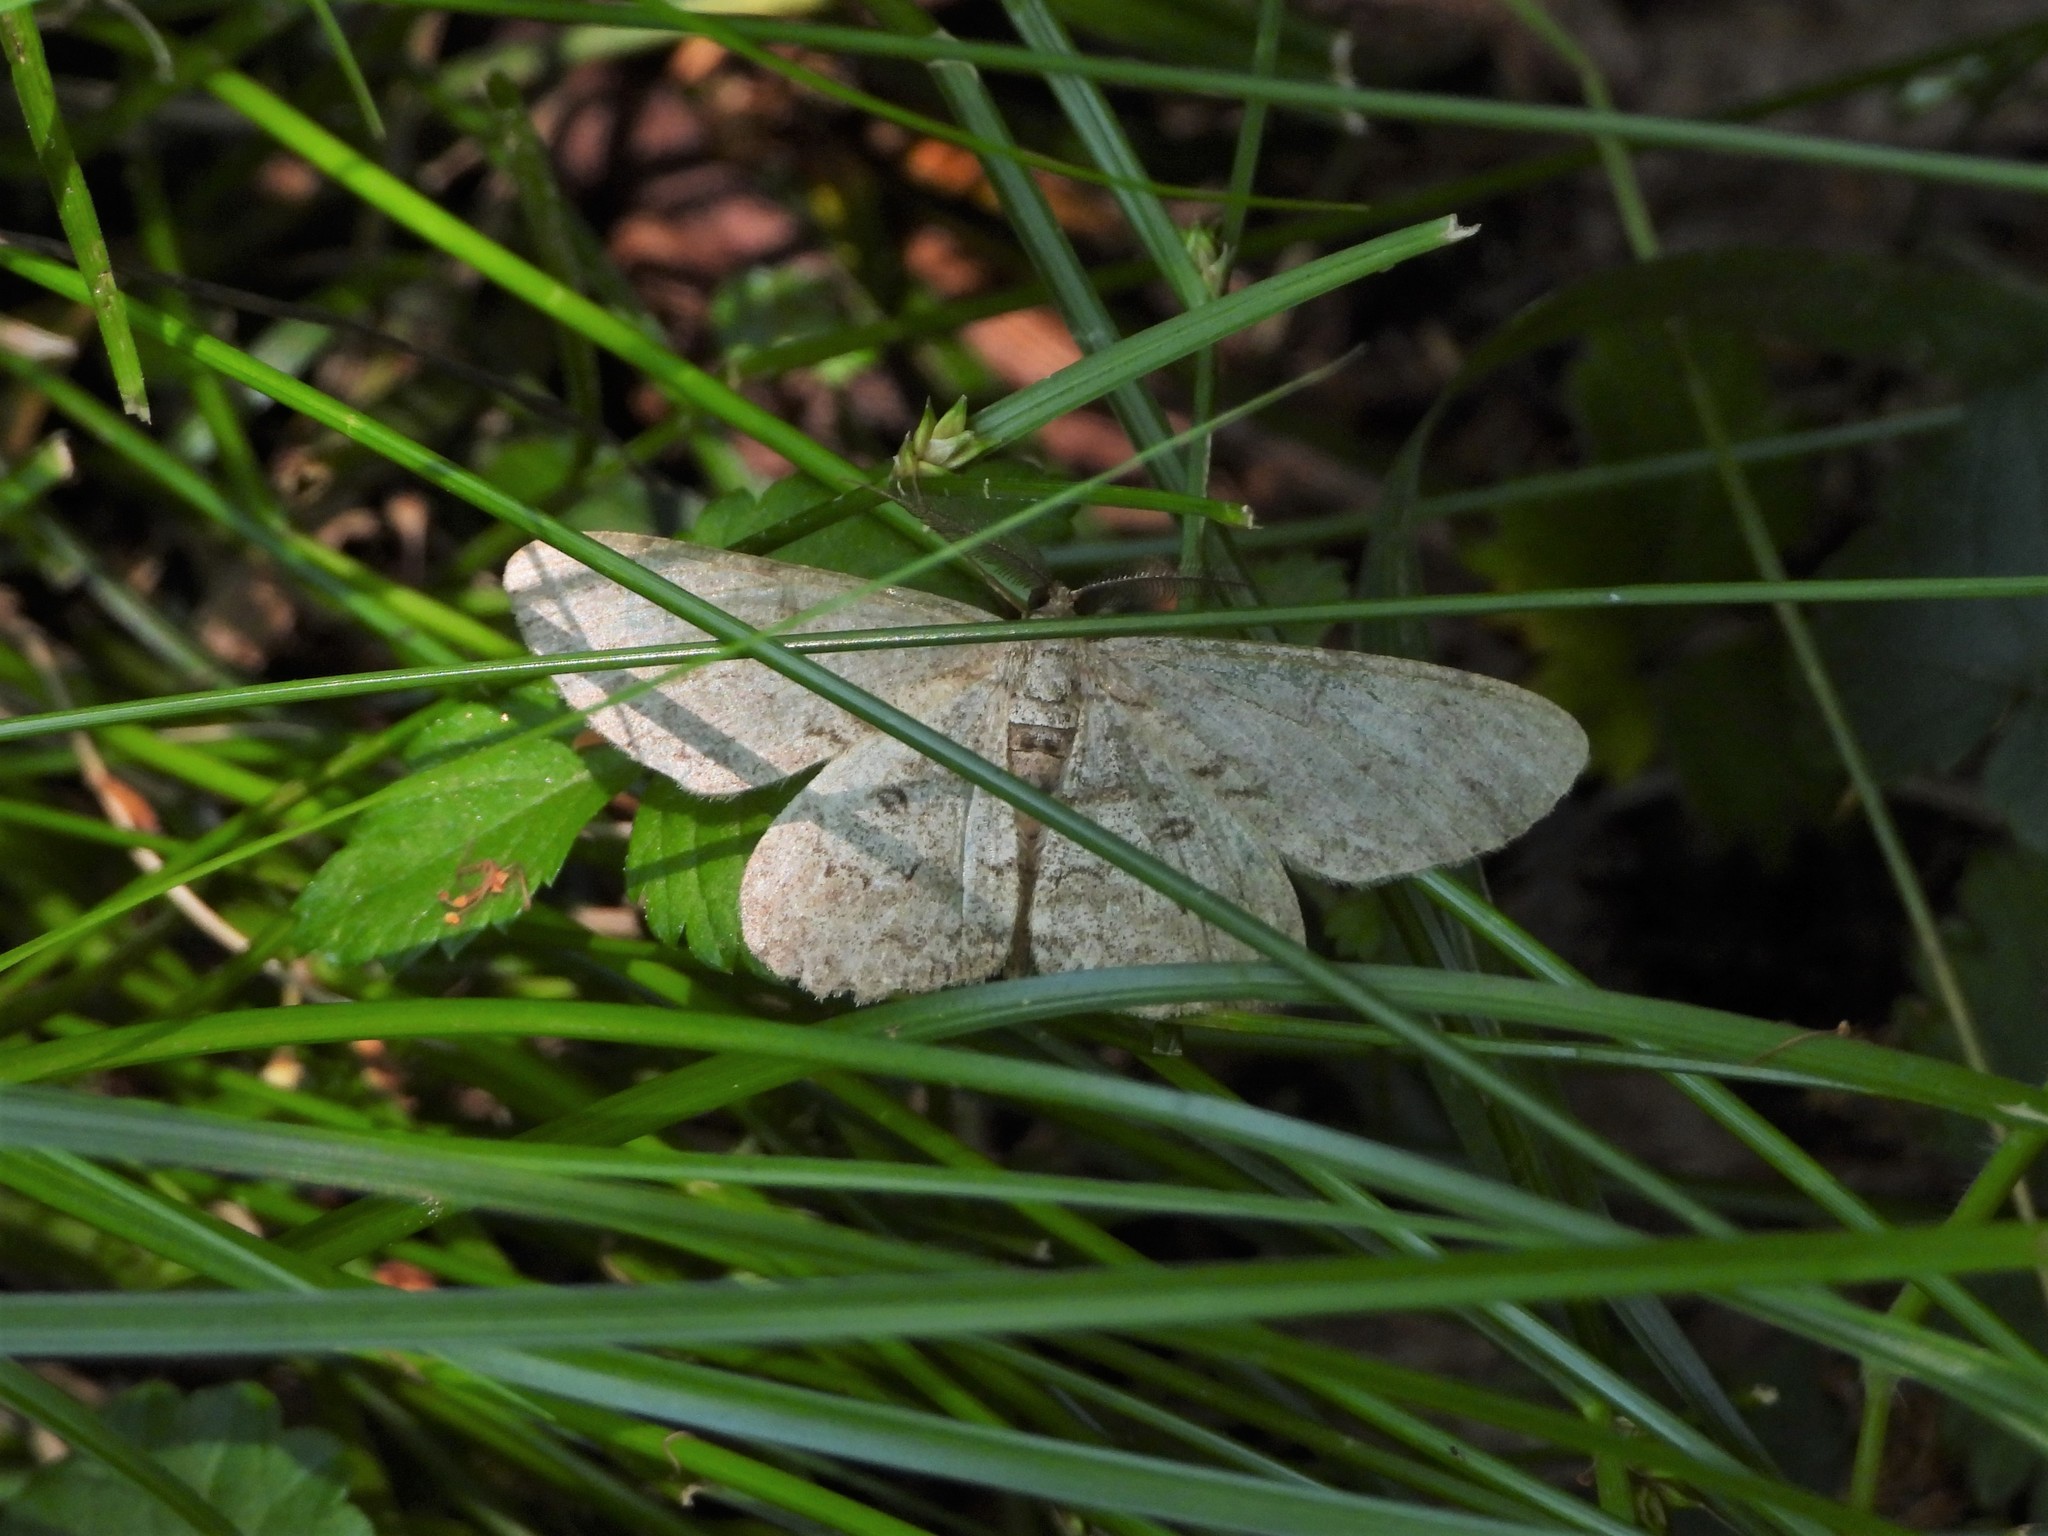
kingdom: Animalia
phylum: Arthropoda
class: Insecta
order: Lepidoptera
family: Geometridae
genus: Hypomecis
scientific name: Hypomecis punctinalis
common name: Pale oak beauty
